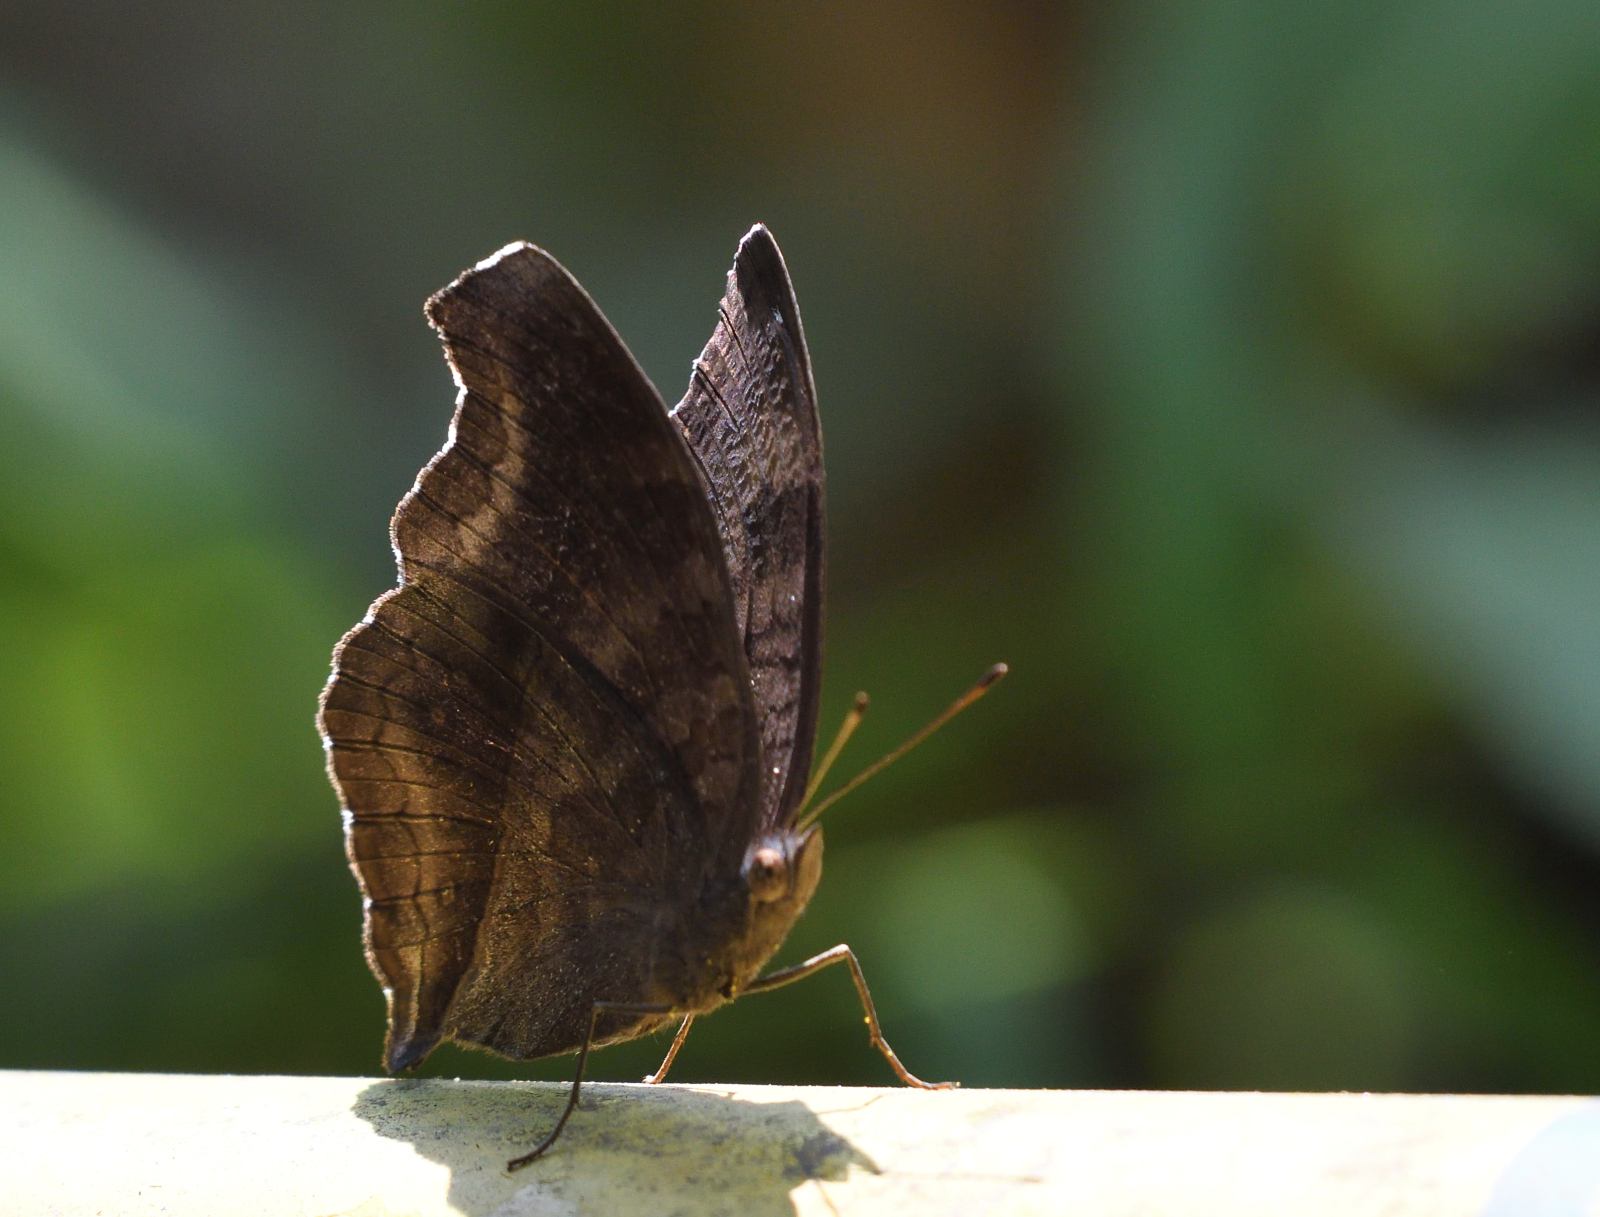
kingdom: Animalia
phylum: Arthropoda
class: Insecta
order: Lepidoptera
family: Nymphalidae
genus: Junonia
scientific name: Junonia iphita
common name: Chocolate pansy
